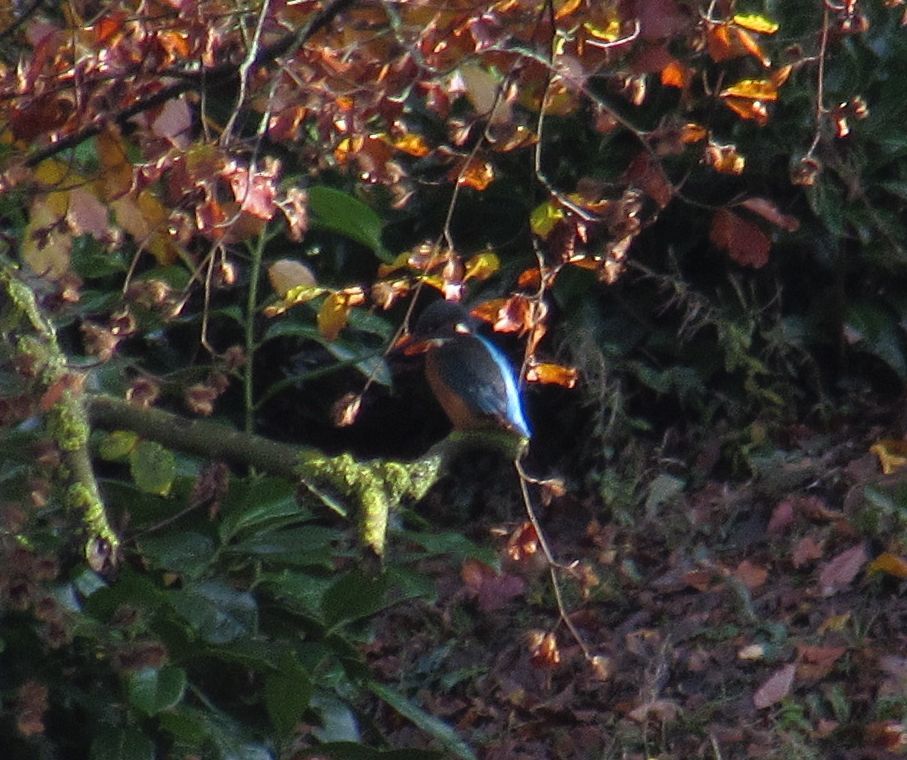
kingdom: Animalia
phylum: Chordata
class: Aves
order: Coraciiformes
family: Alcedinidae
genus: Alcedo
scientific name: Alcedo atthis
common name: Common kingfisher
